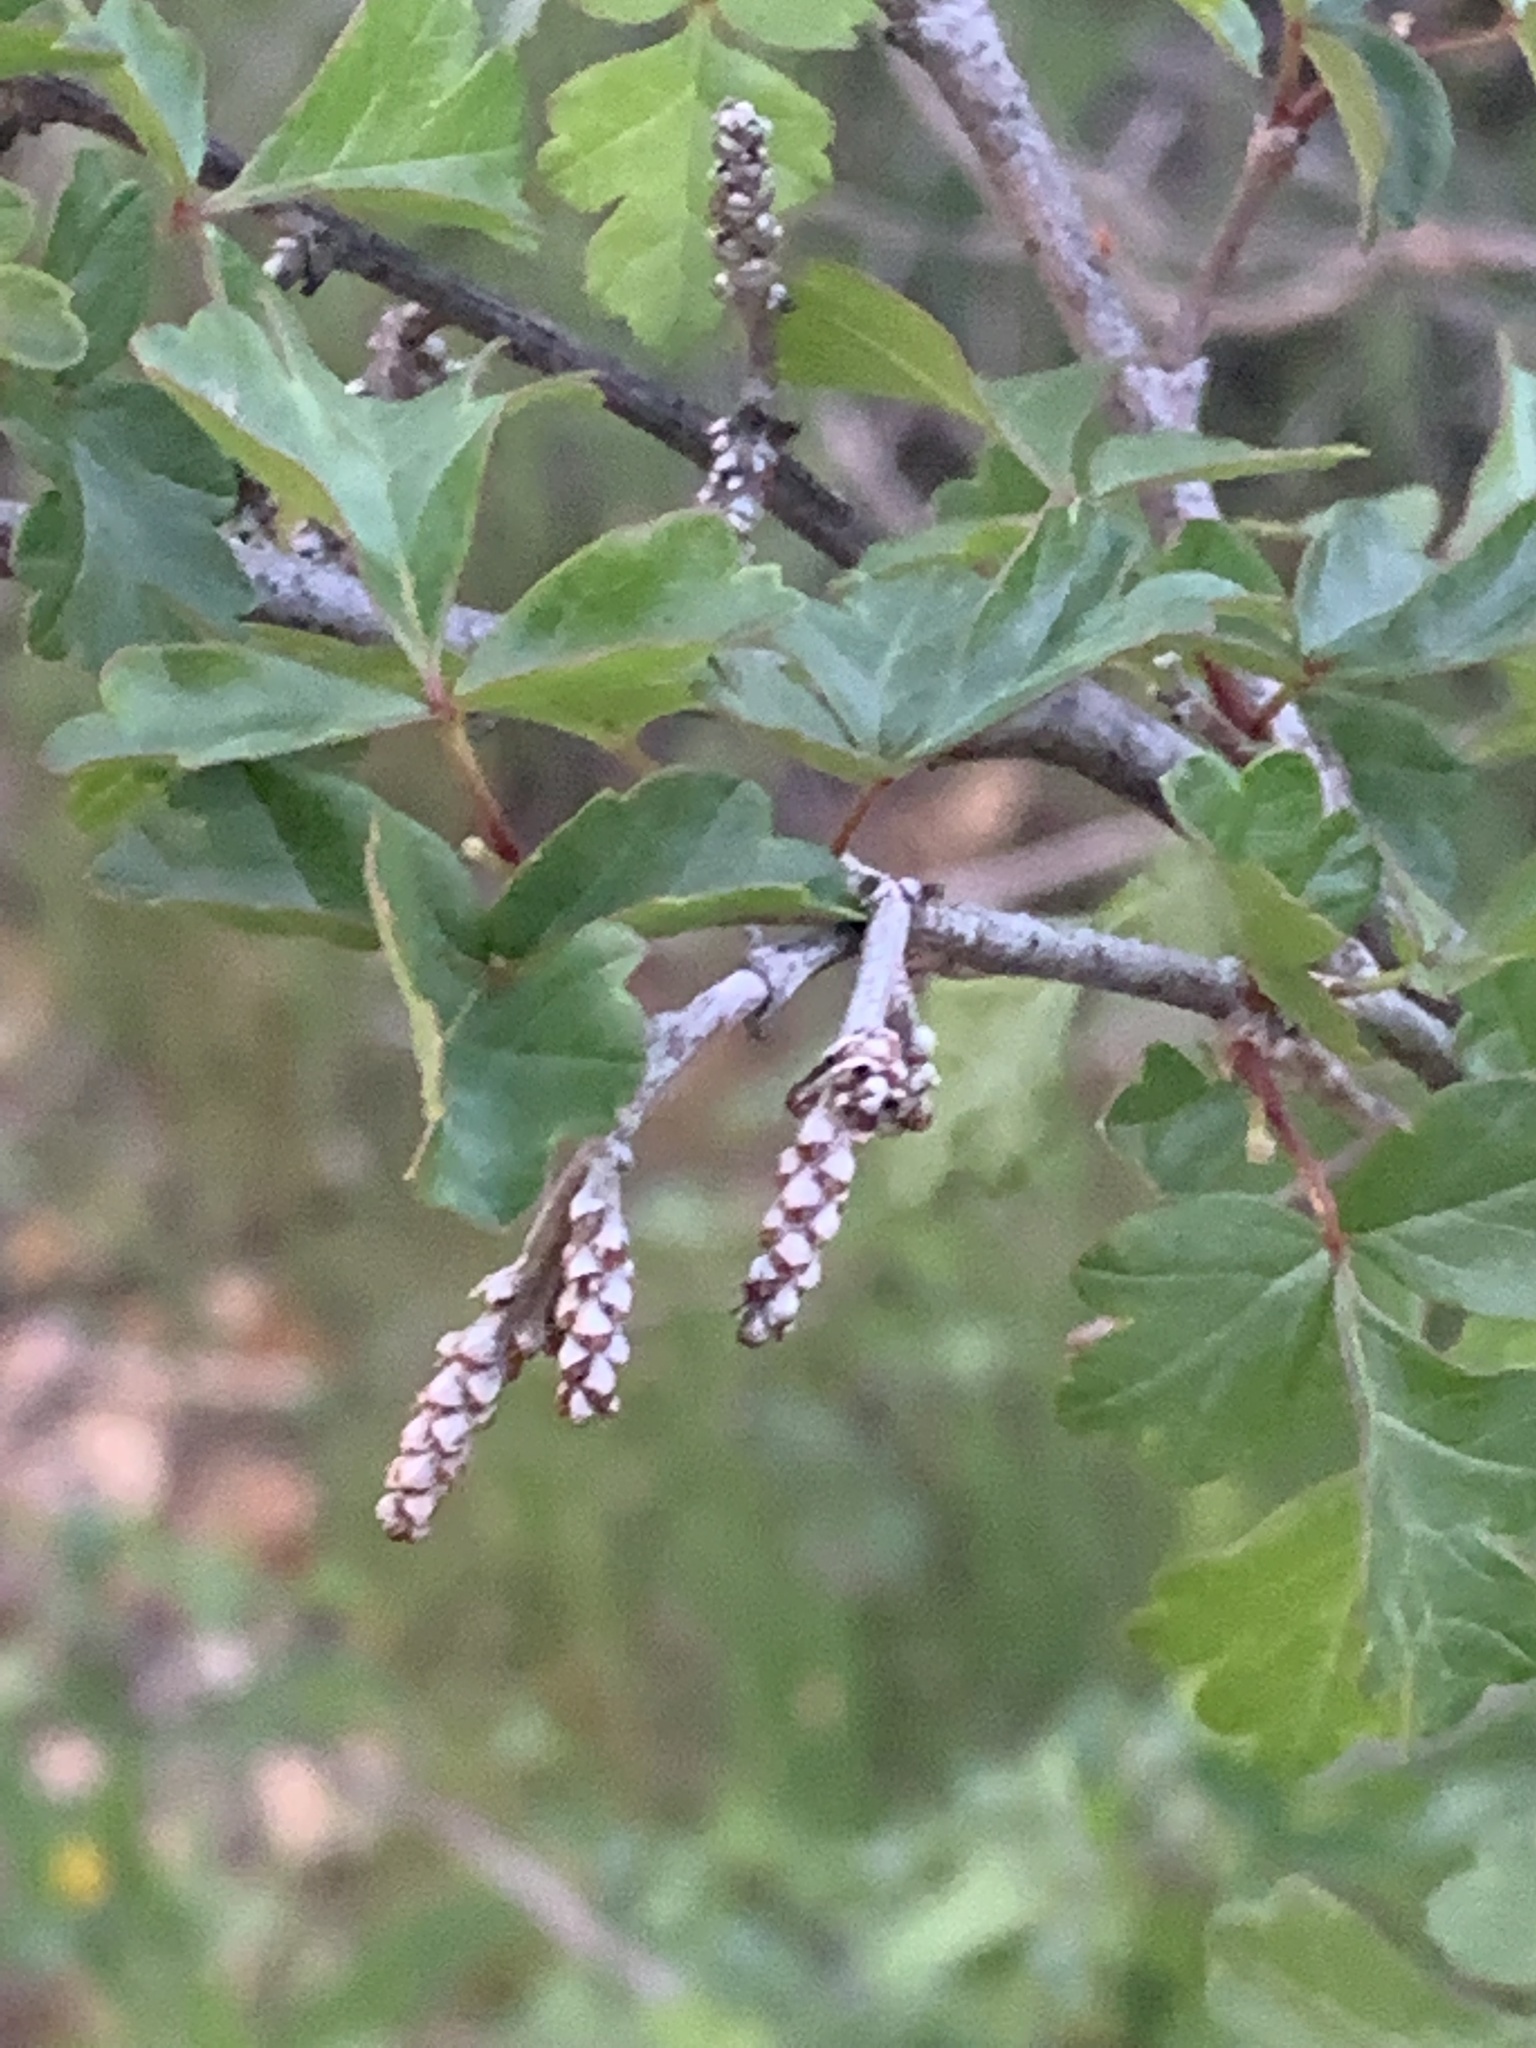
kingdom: Plantae
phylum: Tracheophyta
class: Magnoliopsida
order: Sapindales
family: Anacardiaceae
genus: Rhus
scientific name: Rhus aromatica
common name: Aromatic sumac
